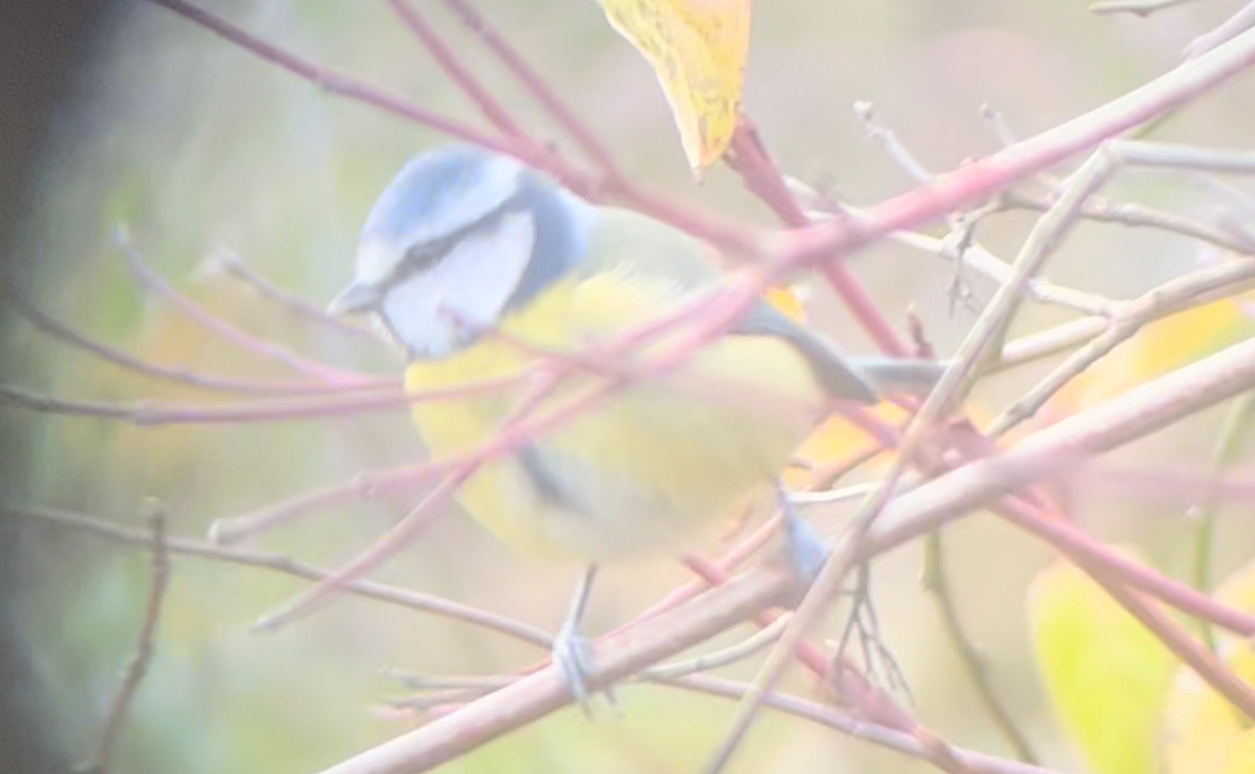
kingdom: Animalia
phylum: Chordata
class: Aves
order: Passeriformes
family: Paridae
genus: Cyanistes
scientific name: Cyanistes caeruleus
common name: Eurasian blue tit
